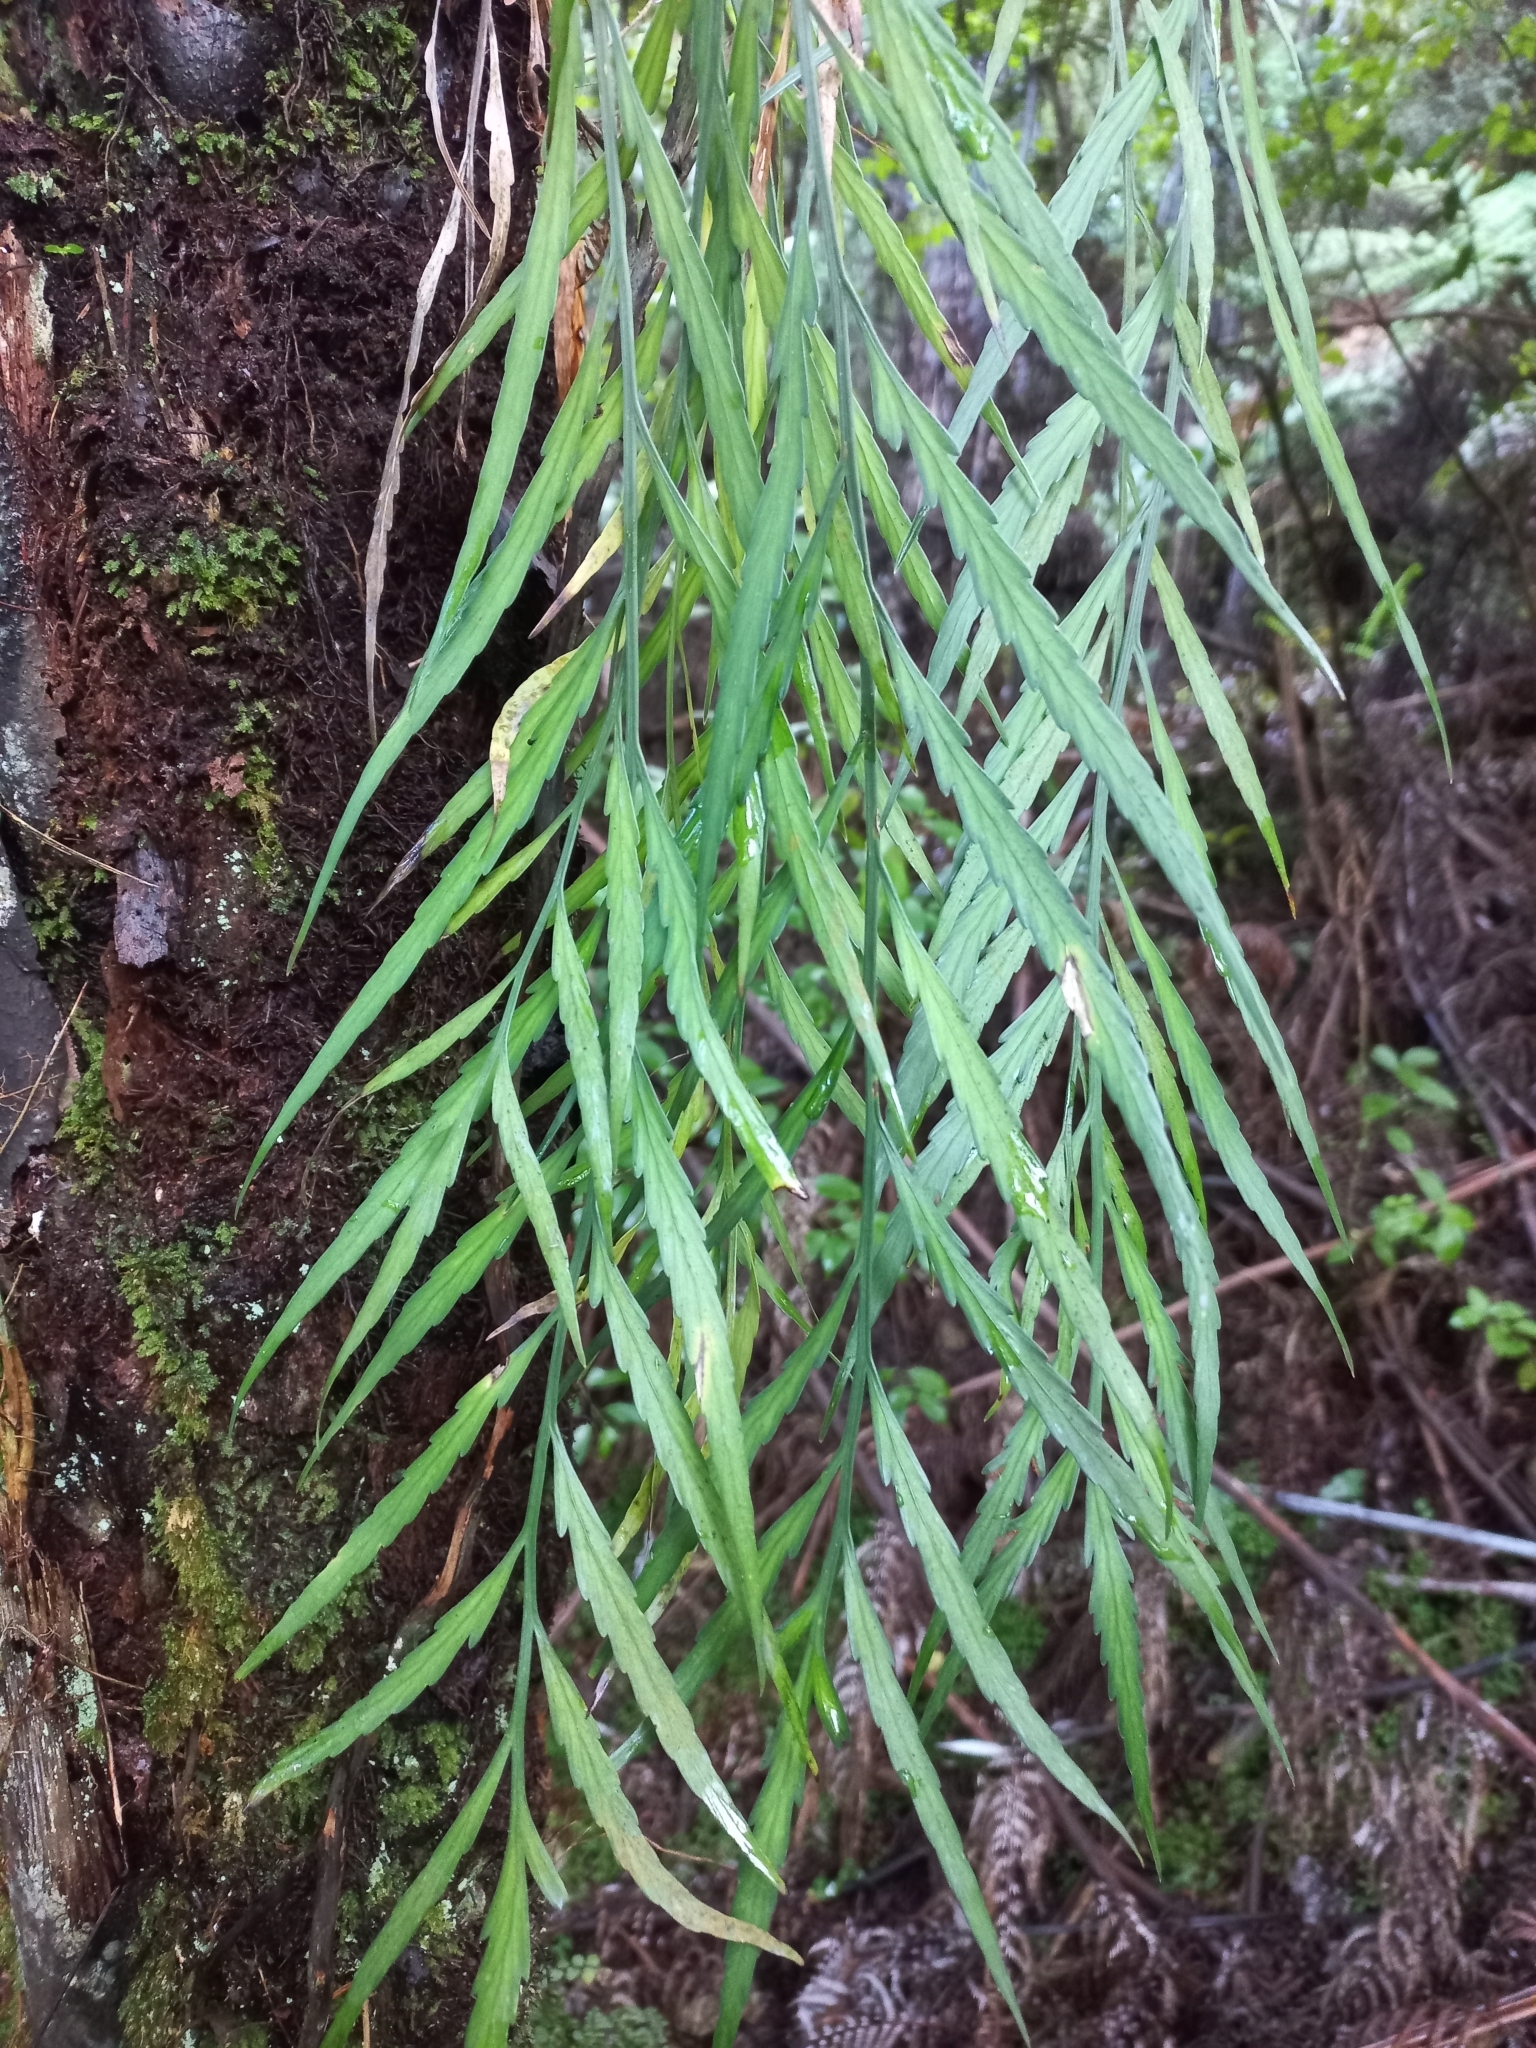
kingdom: Plantae
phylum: Tracheophyta
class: Polypodiopsida
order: Polypodiales
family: Aspleniaceae
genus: Asplenium
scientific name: Asplenium flaccidum
